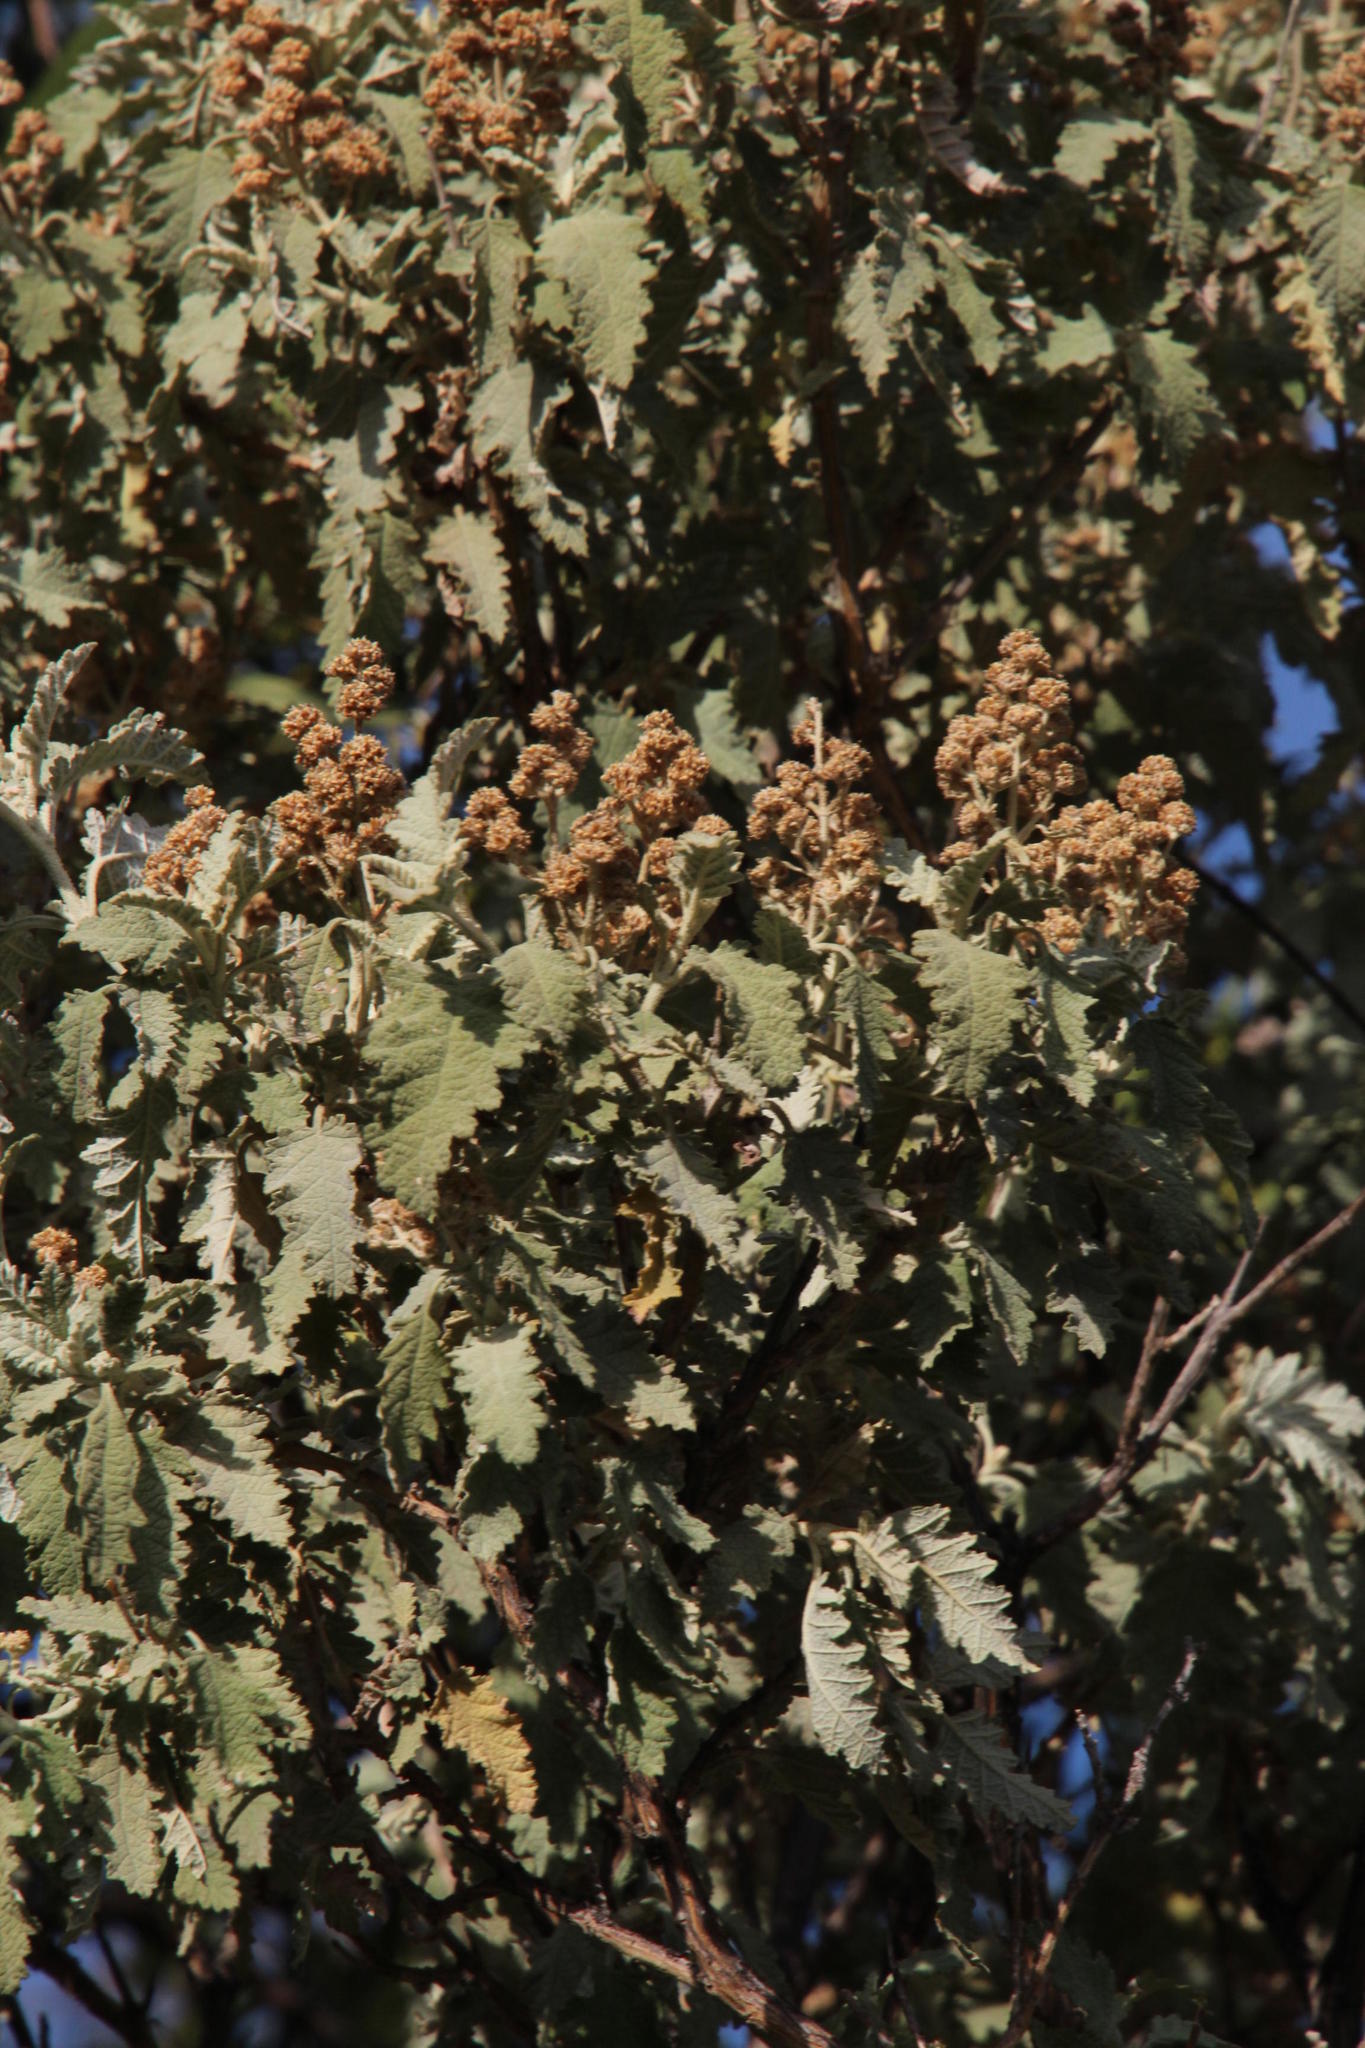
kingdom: Plantae
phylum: Tracheophyta
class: Magnoliopsida
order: Lamiales
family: Scrophulariaceae
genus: Buddleja
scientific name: Buddleja glomerata
